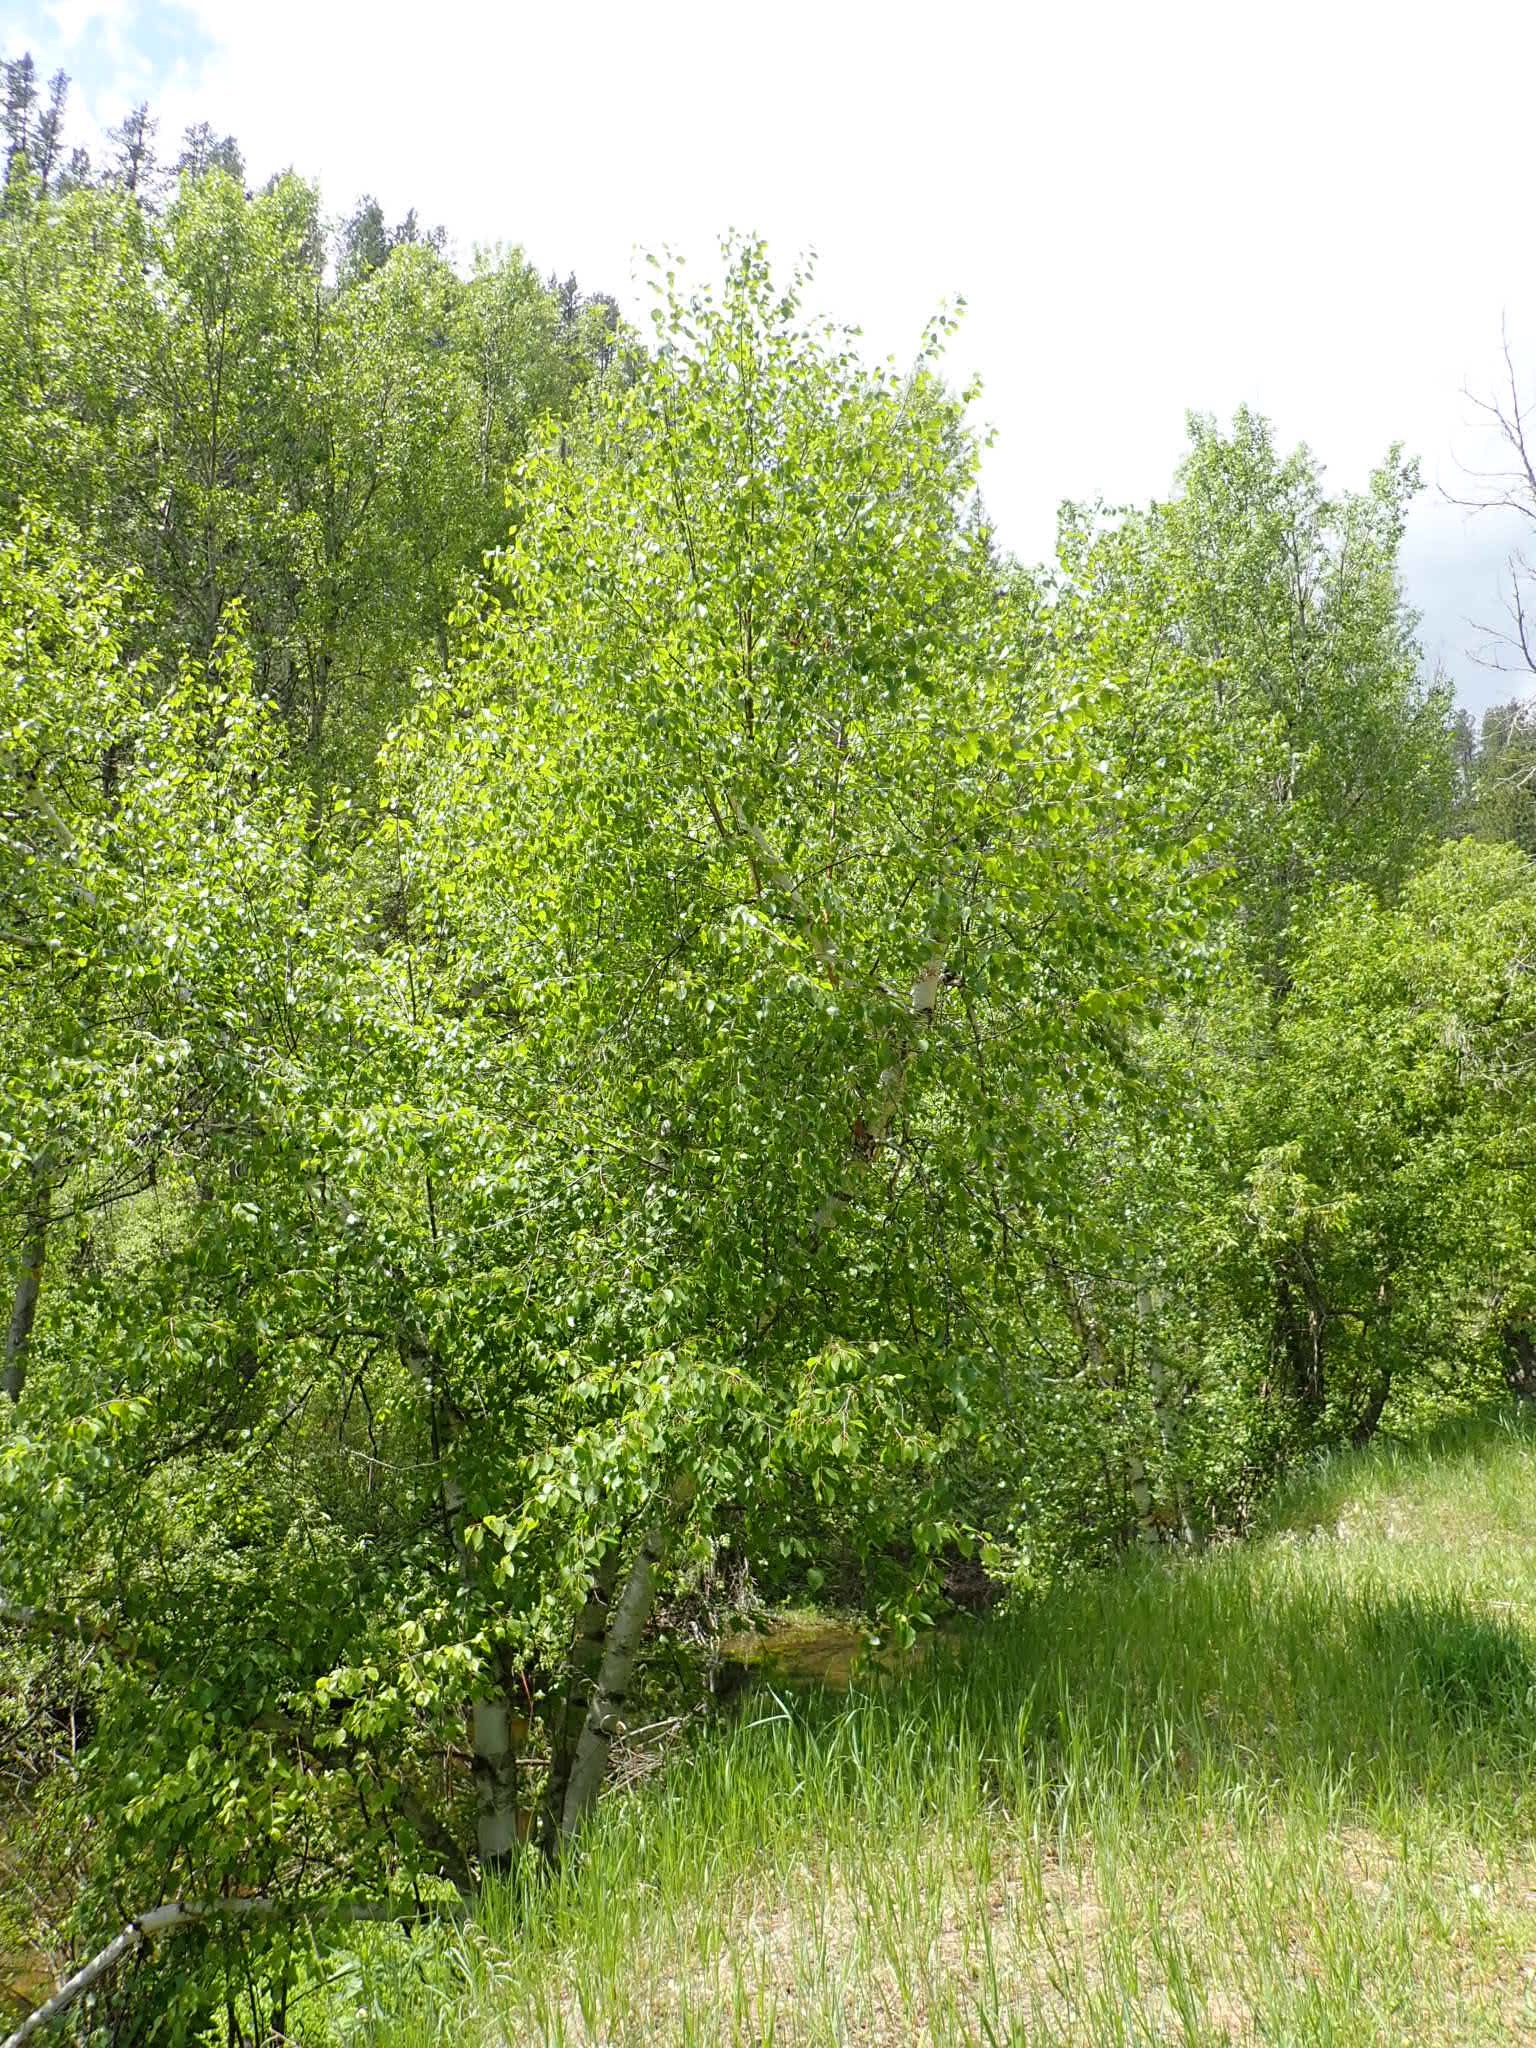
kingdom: Plantae
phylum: Tracheophyta
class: Magnoliopsida
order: Fagales
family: Betulaceae
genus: Betula
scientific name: Betula papyrifera
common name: Paper birch
